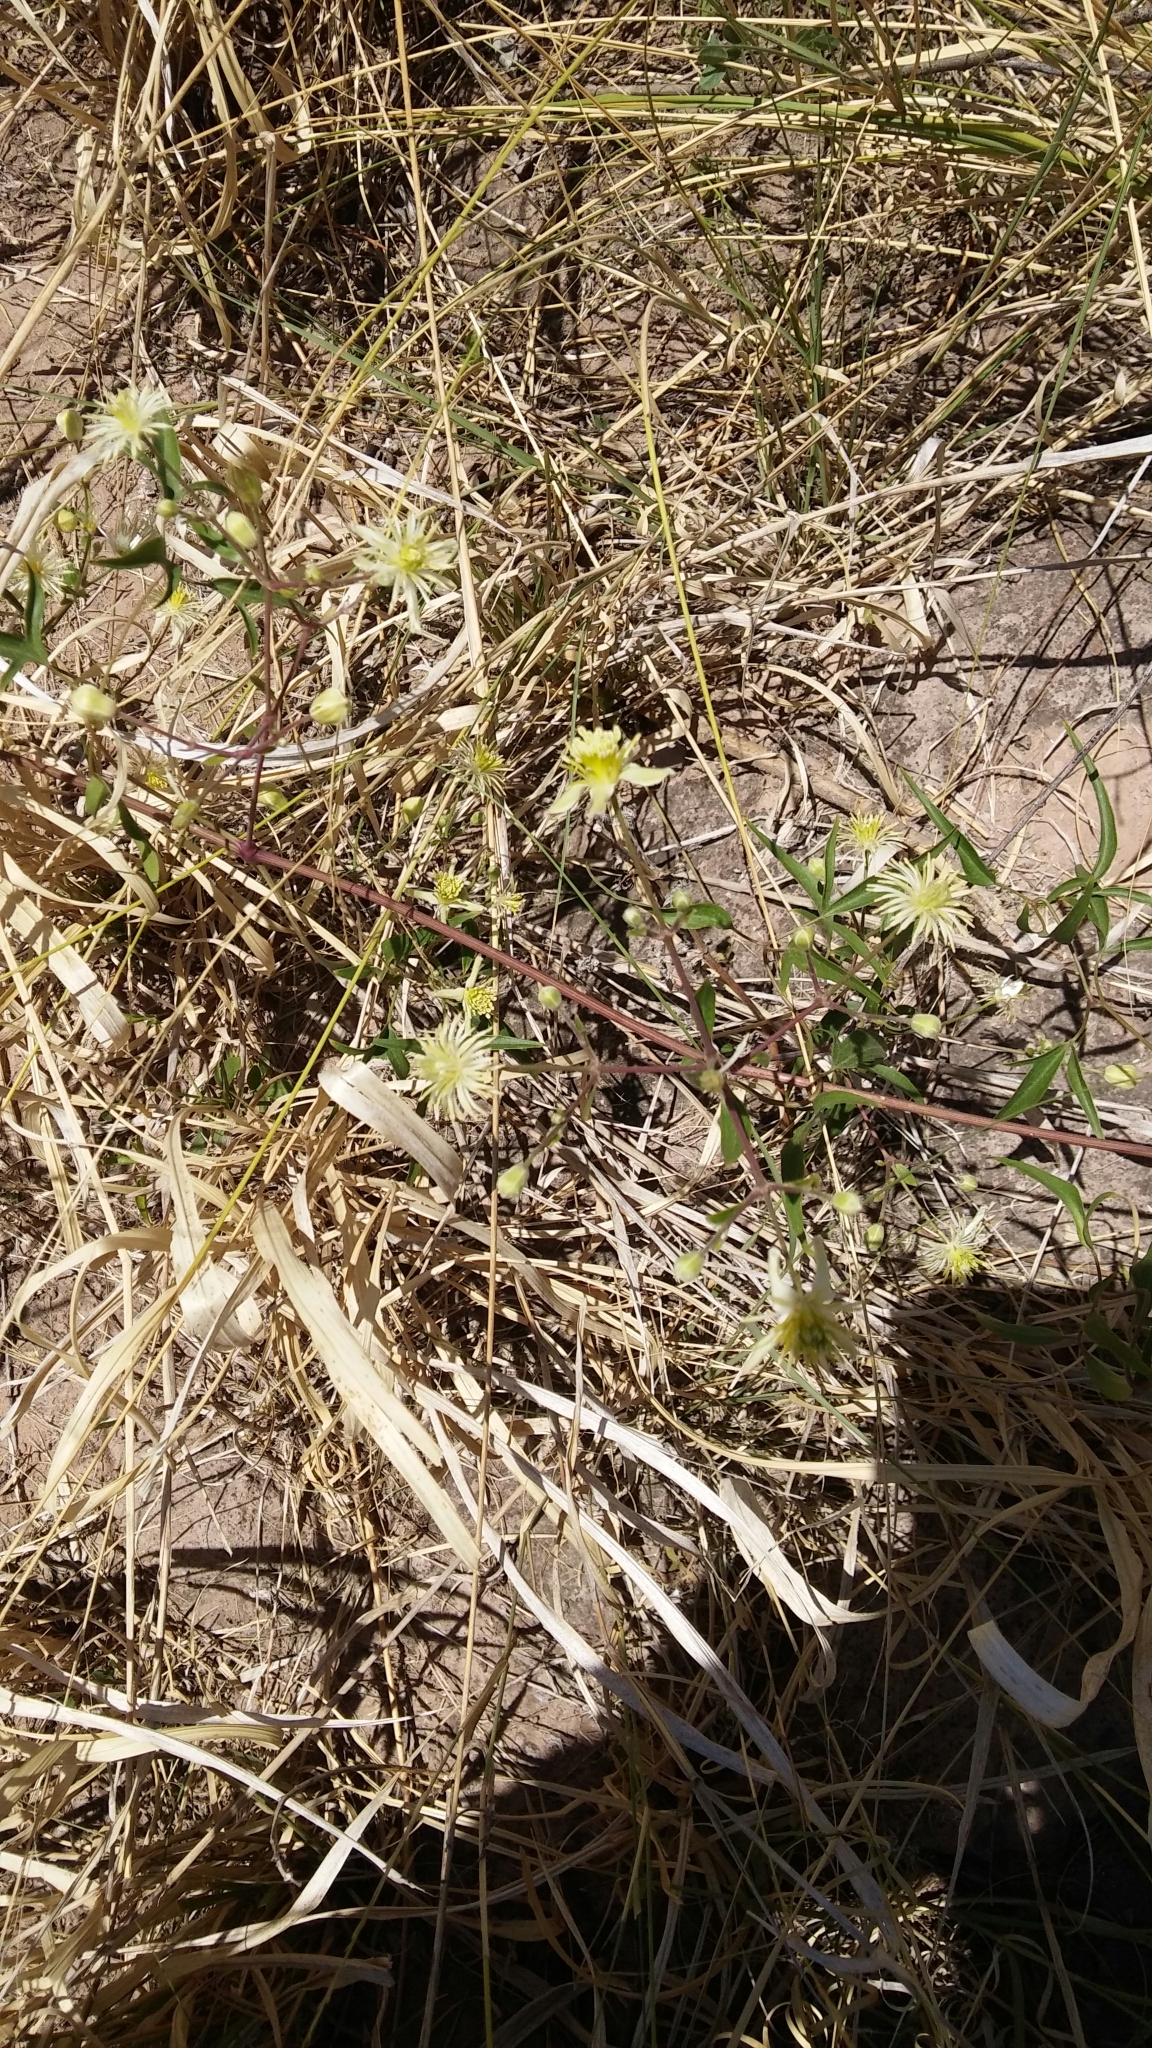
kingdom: Plantae
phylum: Tracheophyta
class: Magnoliopsida
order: Ranunculales
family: Ranunculaceae
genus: Clematis
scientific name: Clematis montevidensis
